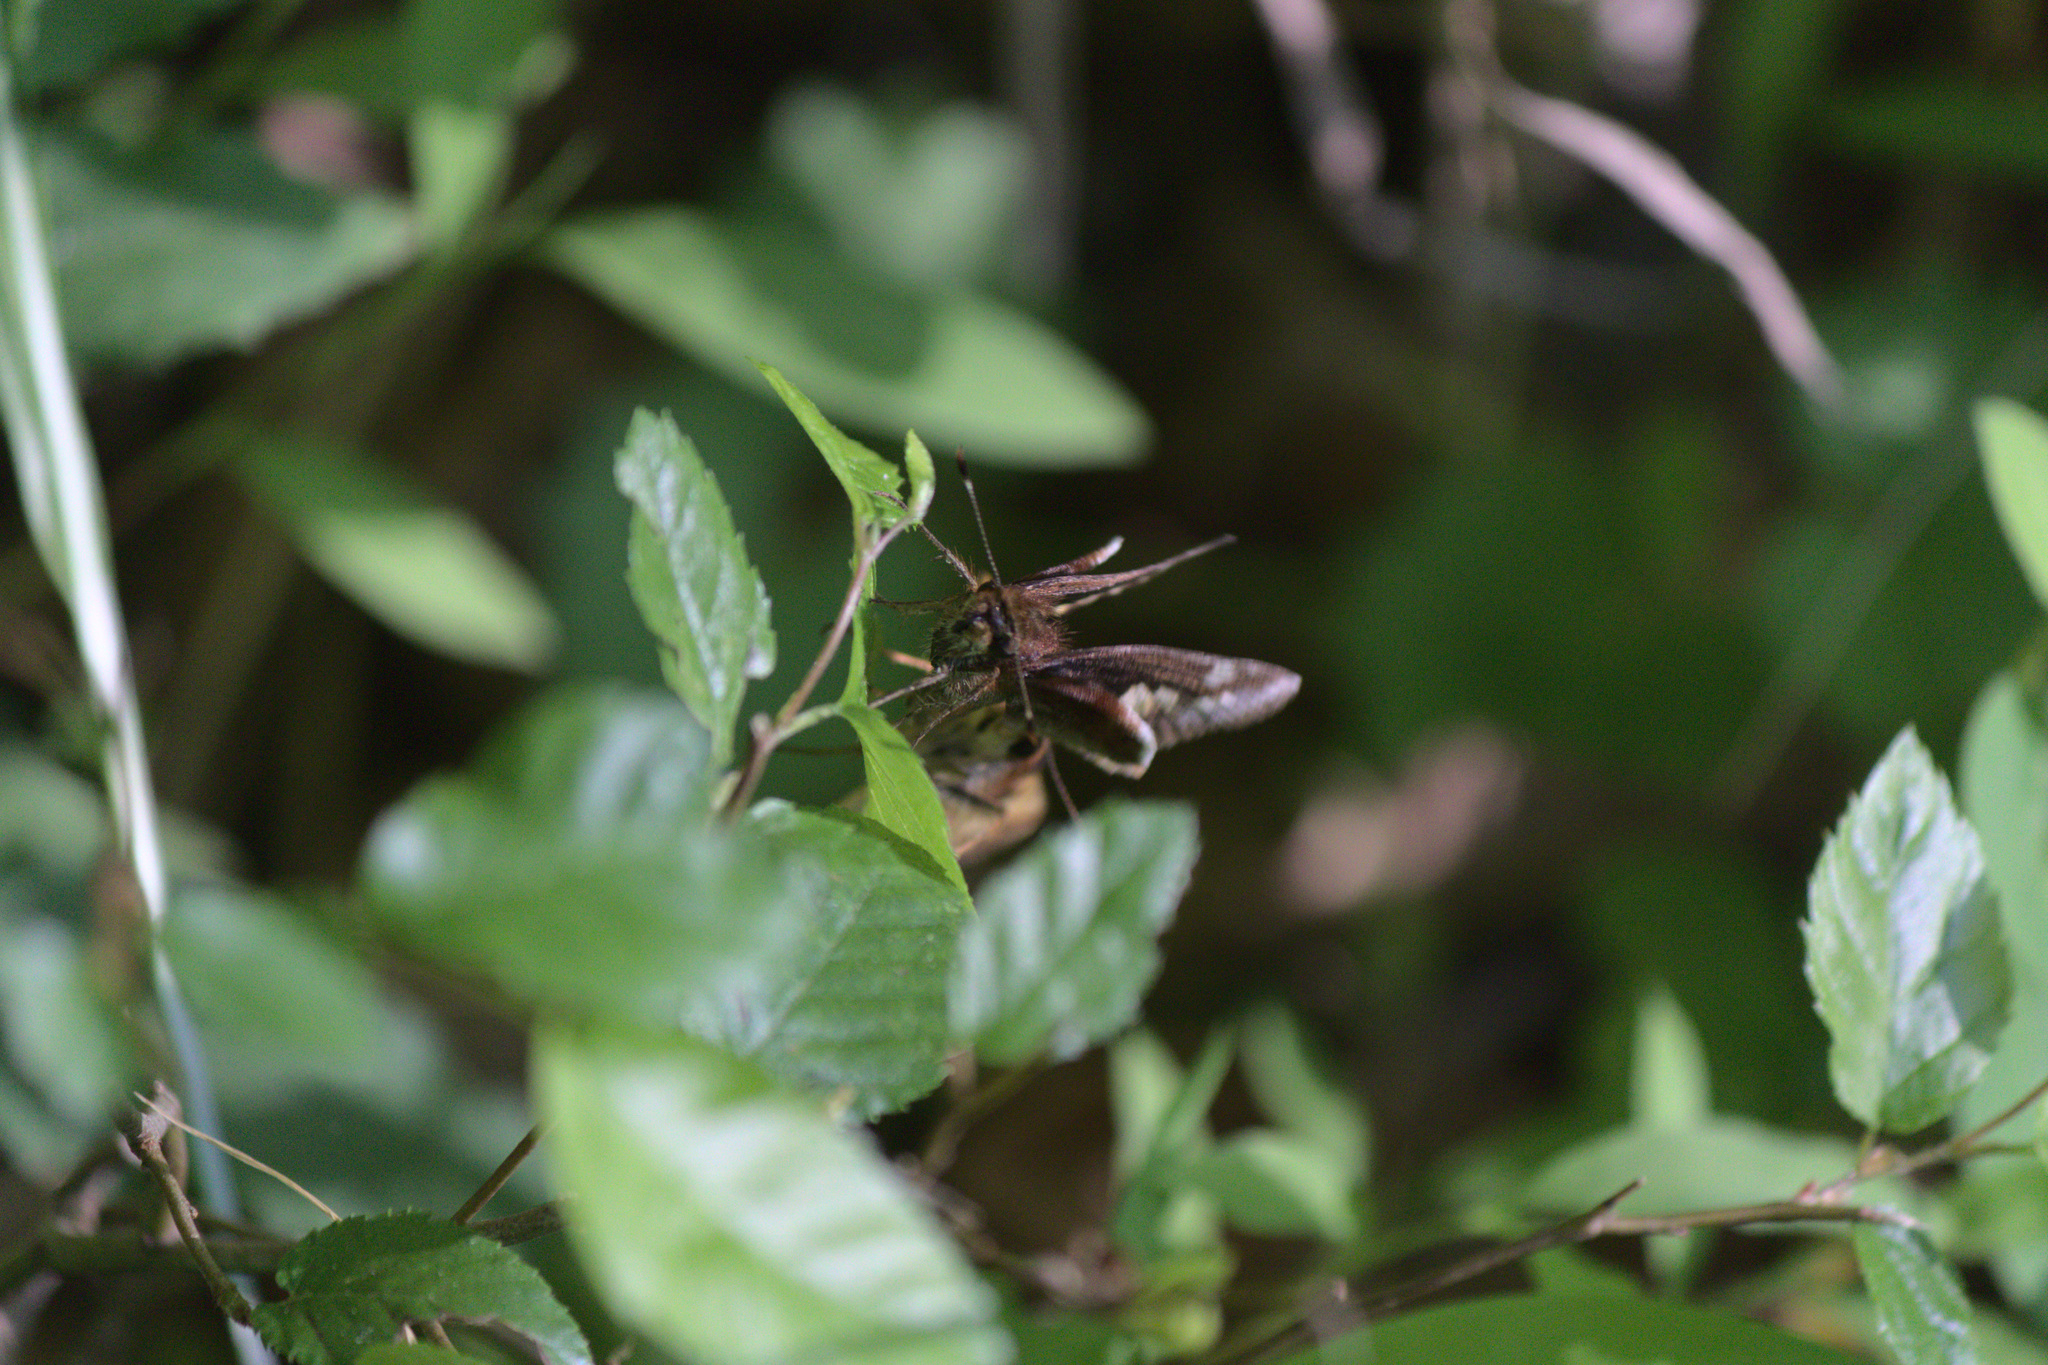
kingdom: Animalia
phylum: Arthropoda
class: Insecta
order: Lepidoptera
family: Hesperiidae
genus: Lon
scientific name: Lon zabulon
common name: Zabulon skipper
